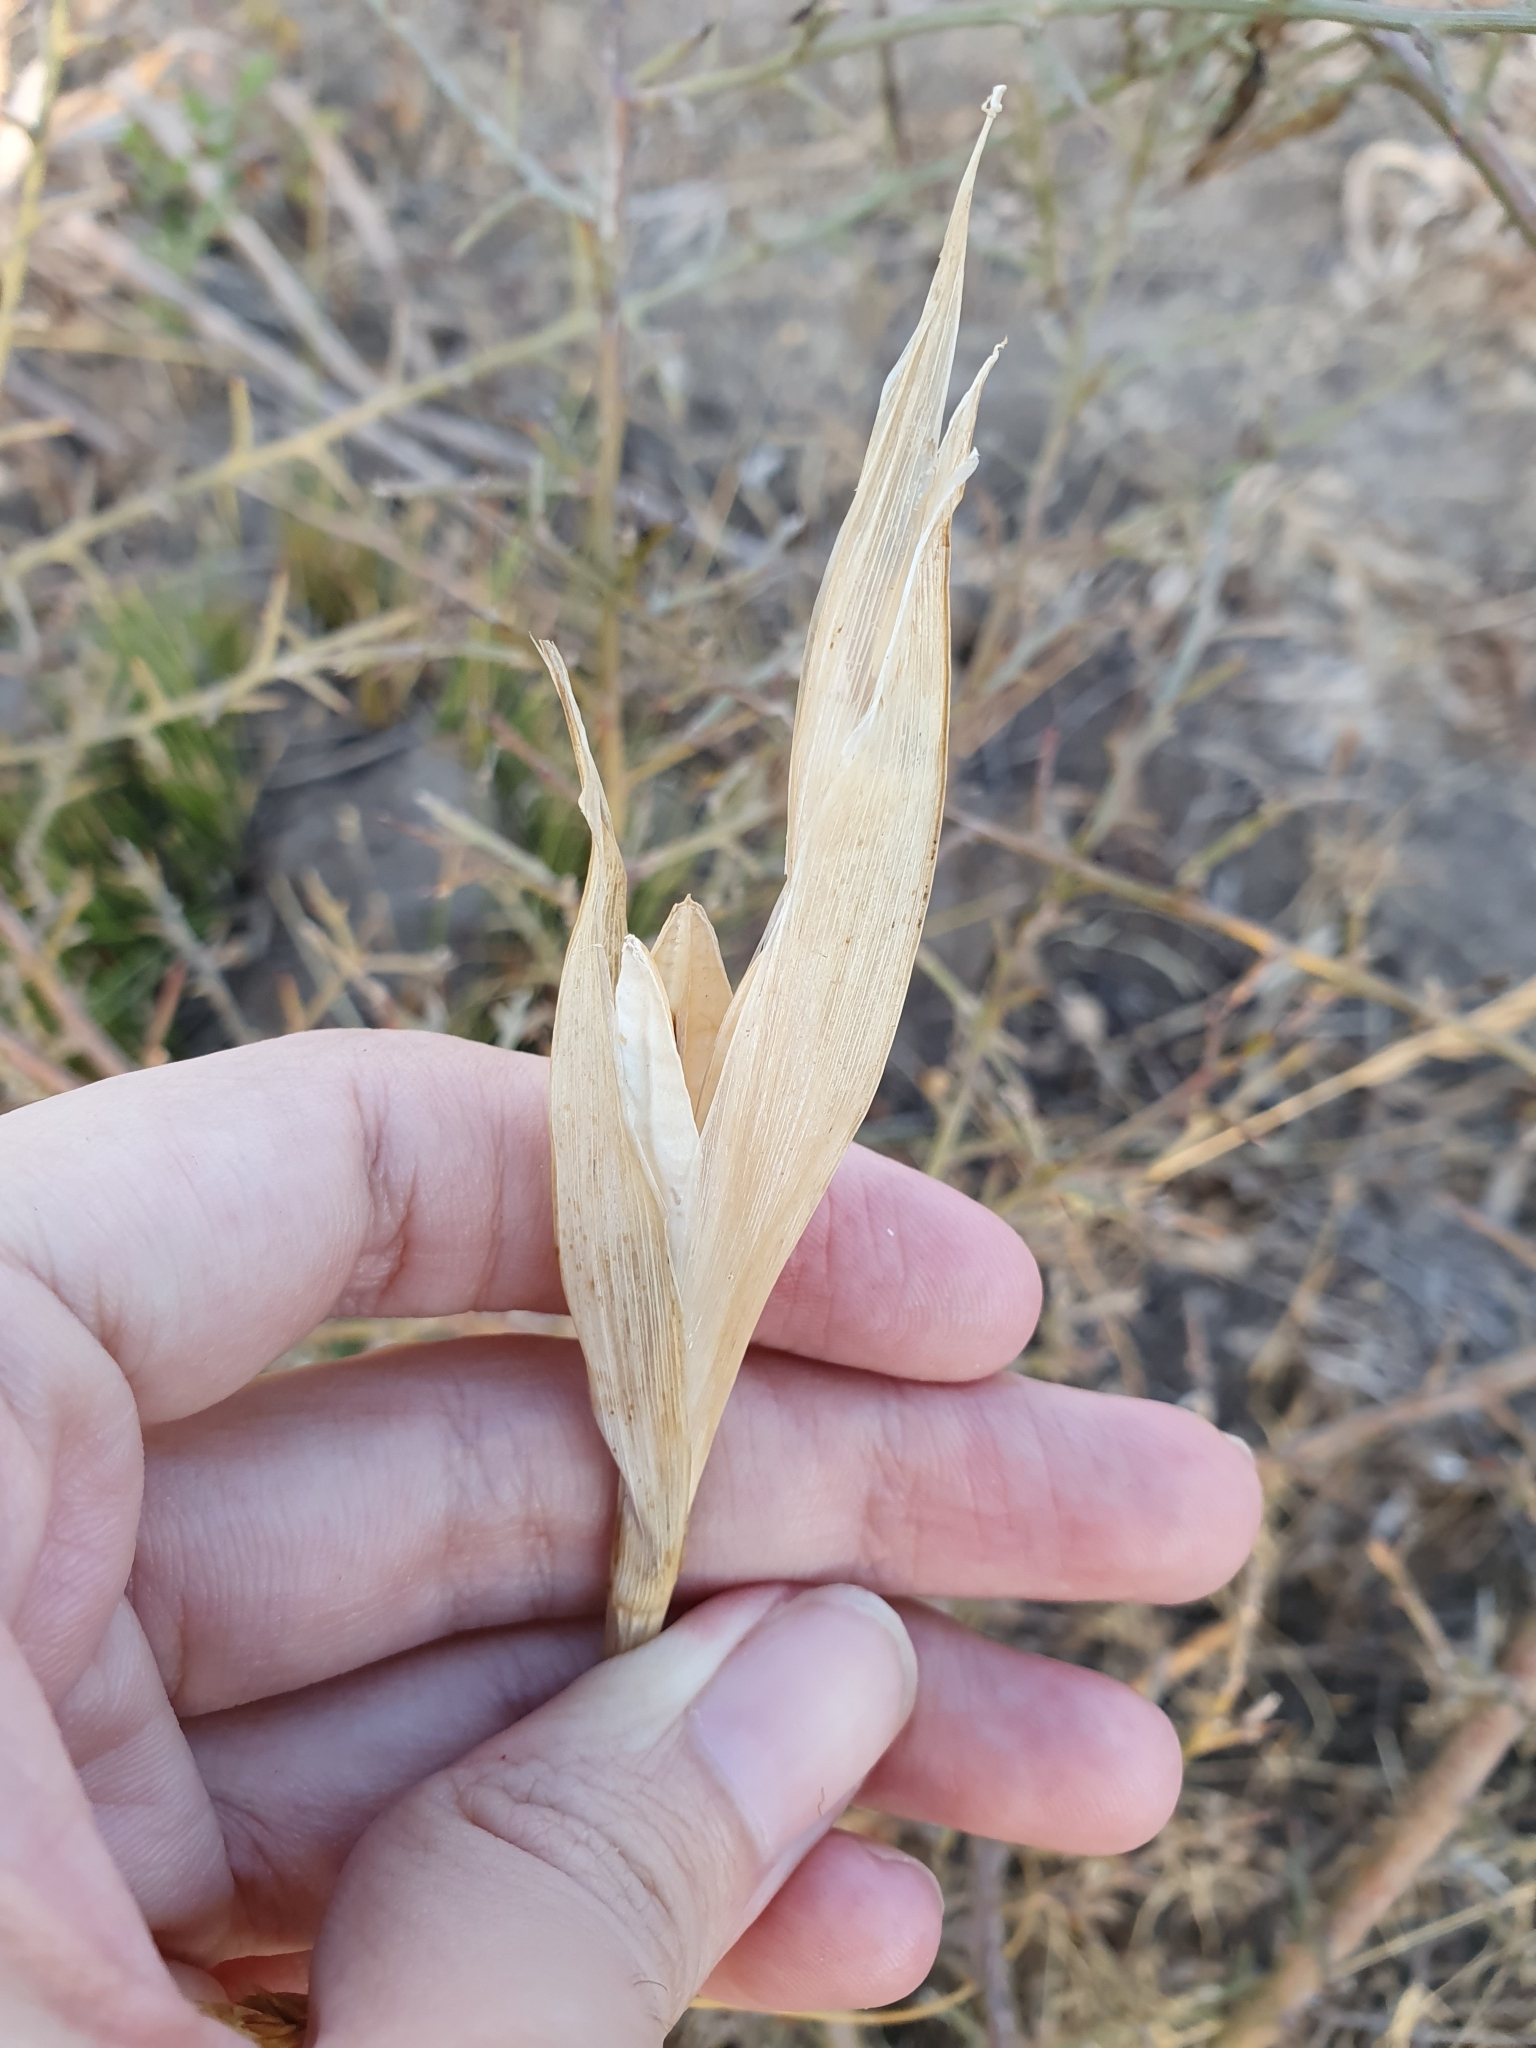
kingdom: Plantae
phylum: Tracheophyta
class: Liliopsida
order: Asparagales
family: Iridaceae
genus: Iris
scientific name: Iris juncea
